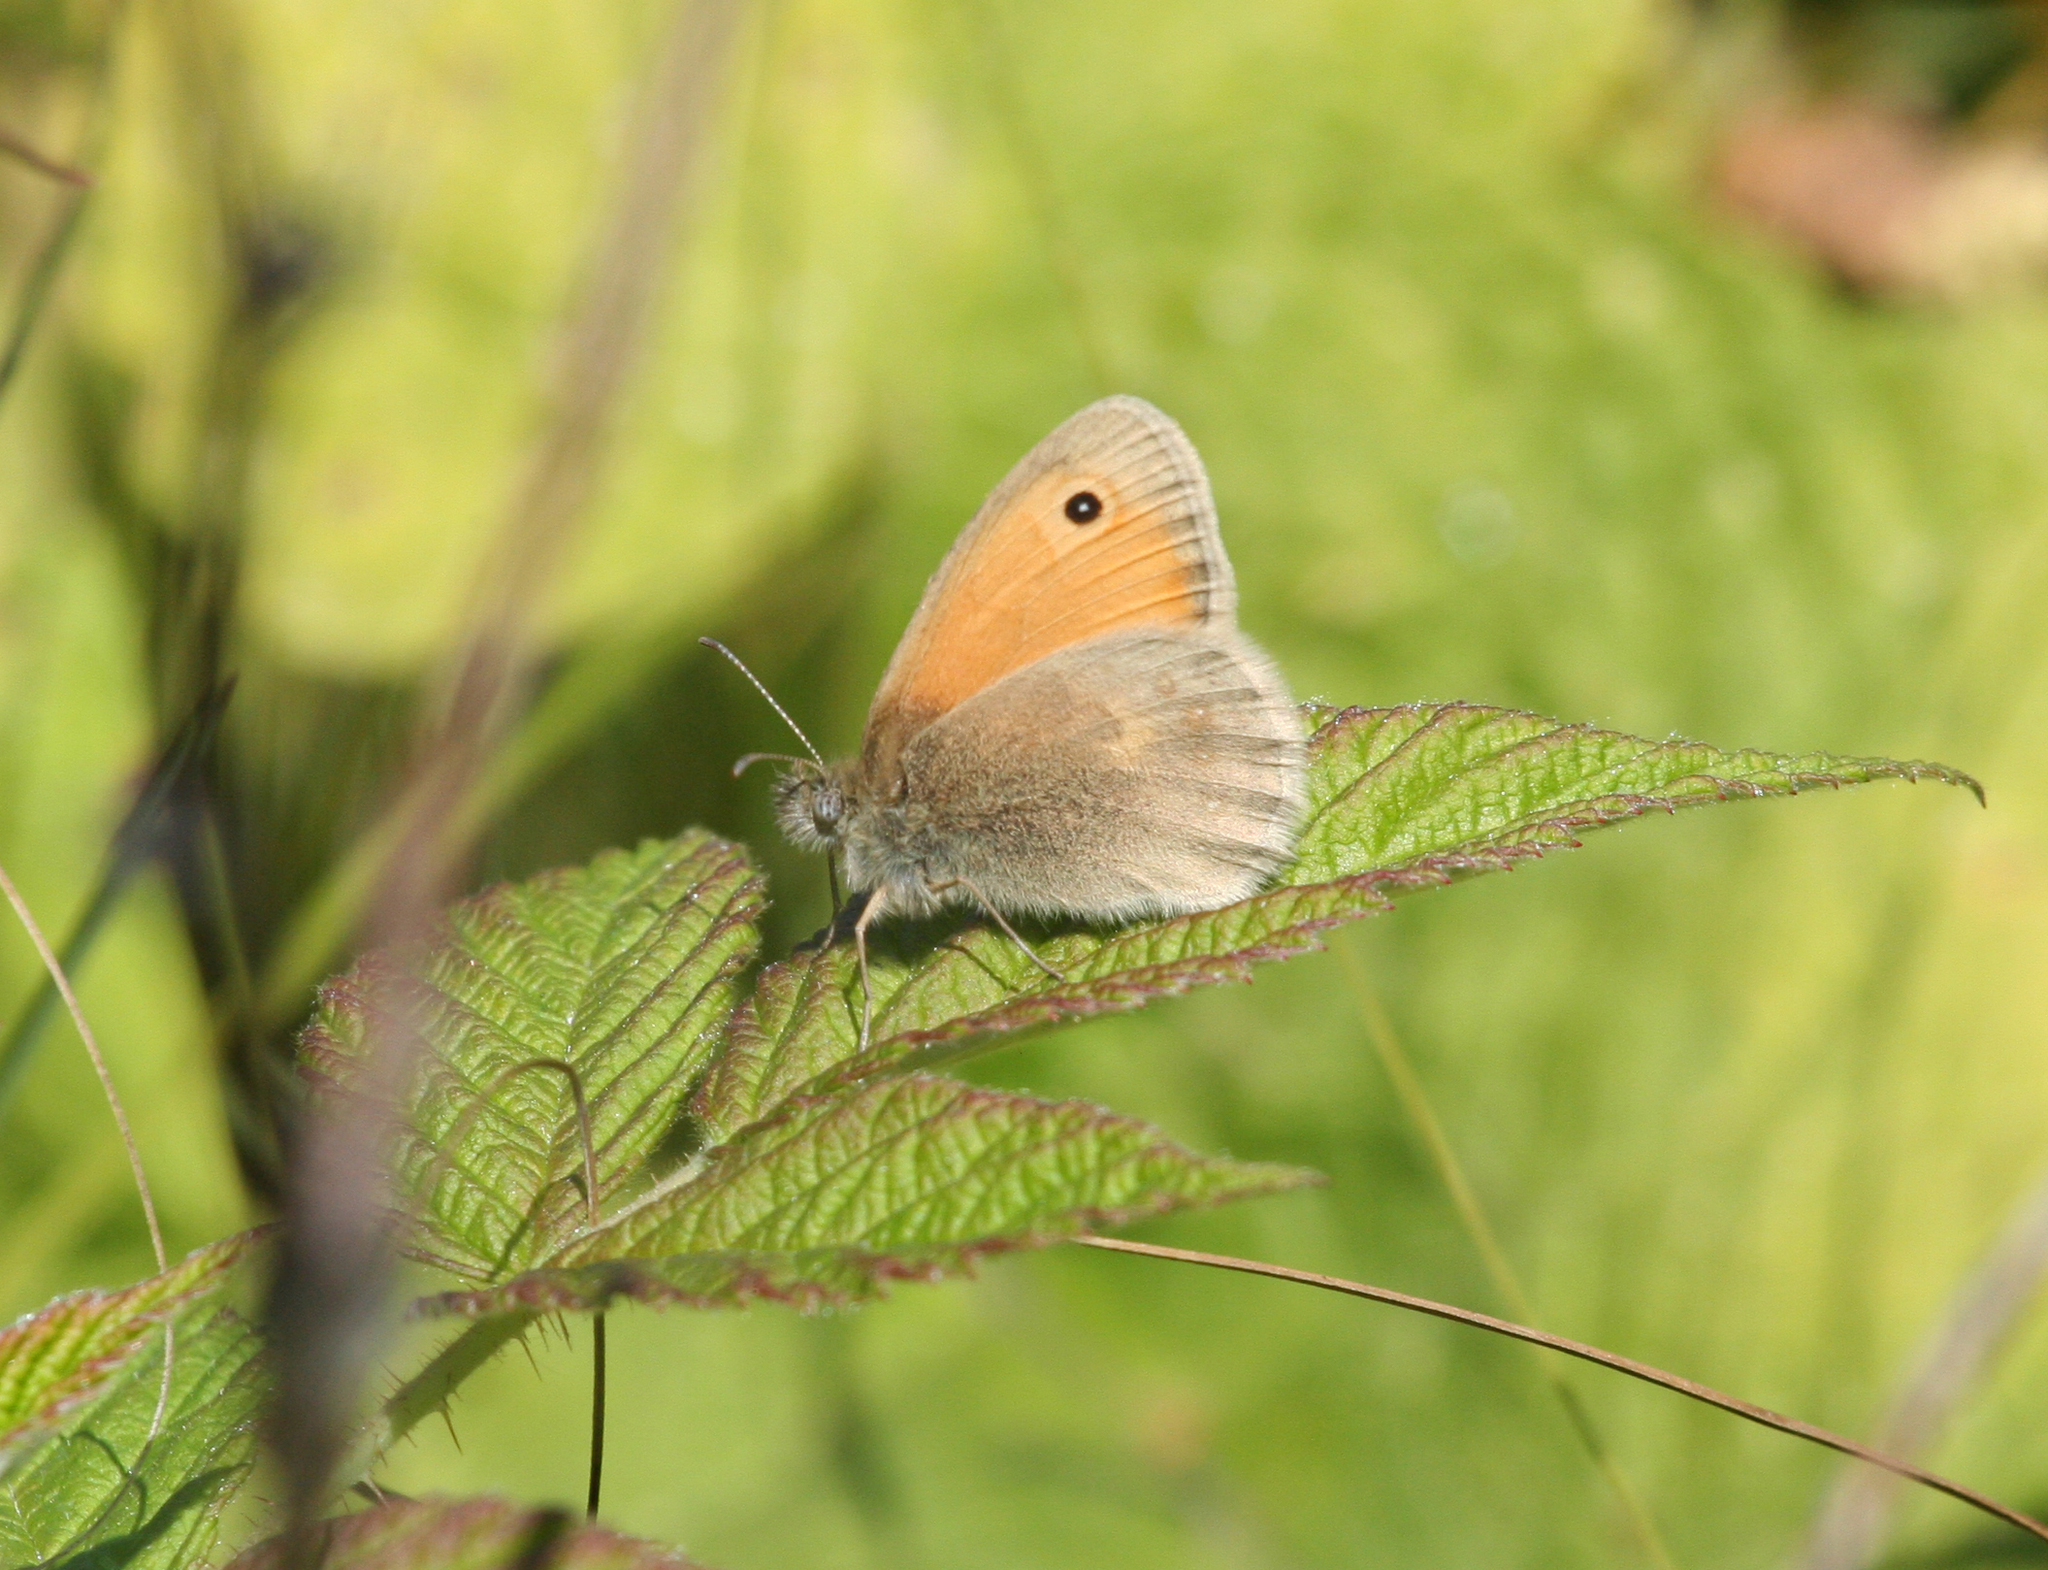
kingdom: Animalia
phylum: Arthropoda
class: Insecta
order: Lepidoptera
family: Nymphalidae
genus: Coenonympha
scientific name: Coenonympha pamphilus
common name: Small heath
